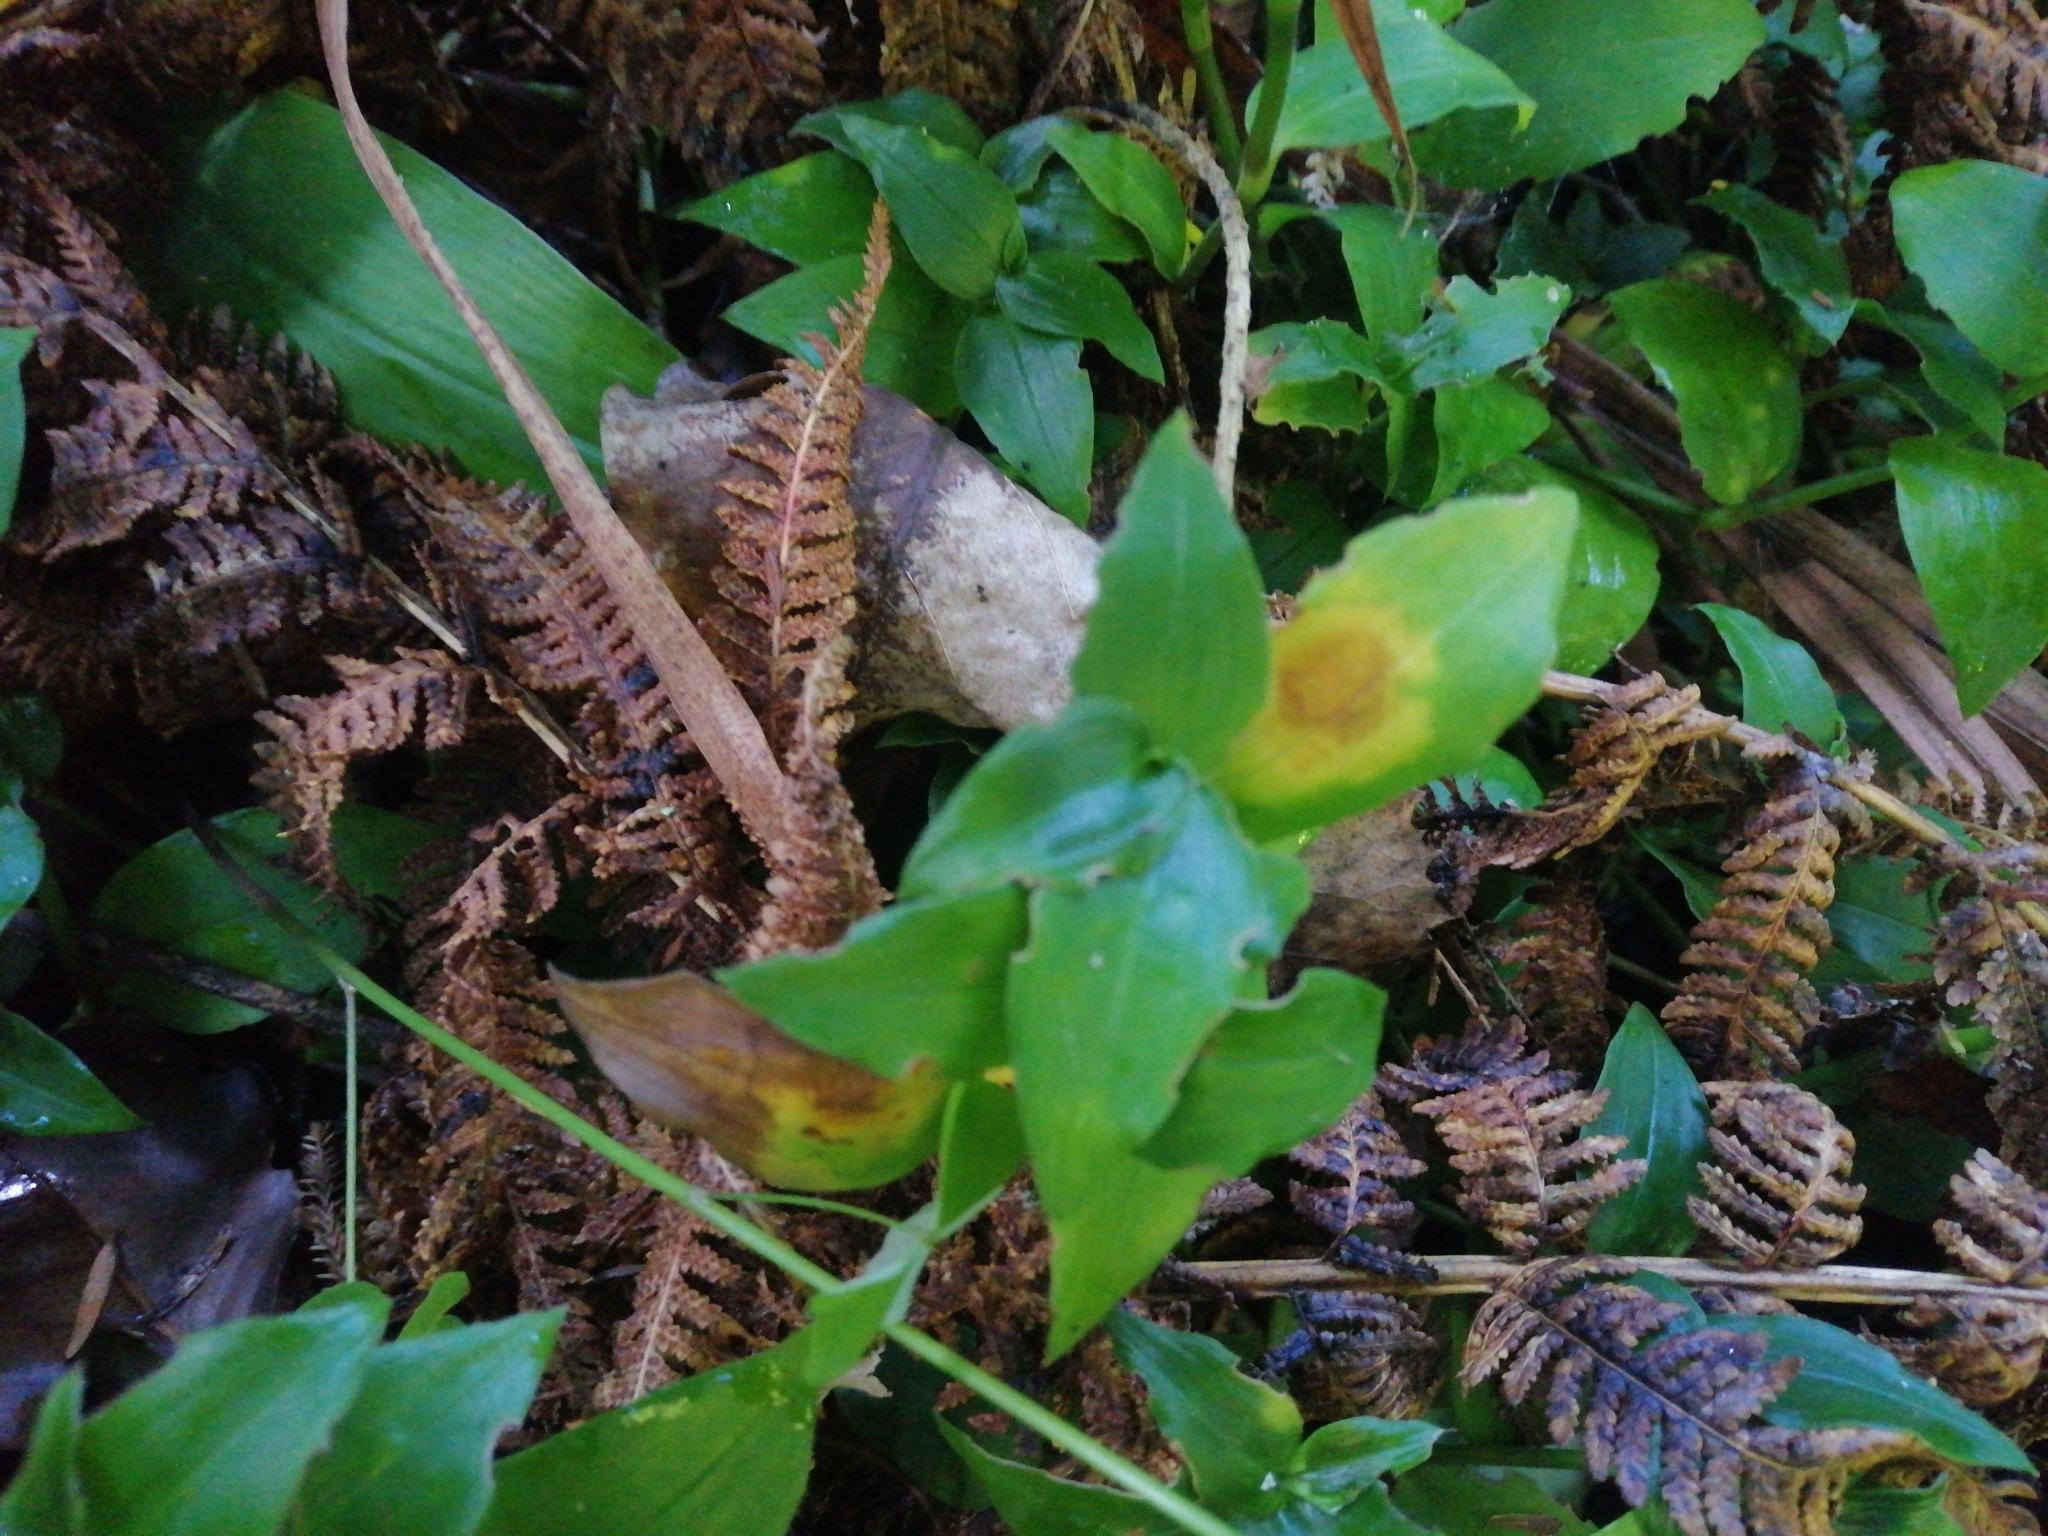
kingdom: Fungi
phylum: Basidiomycota
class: Exobasidiomycetes
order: Exobasidiales
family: Brachybasidiaceae
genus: Kordyana
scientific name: Kordyana brasiliensis
